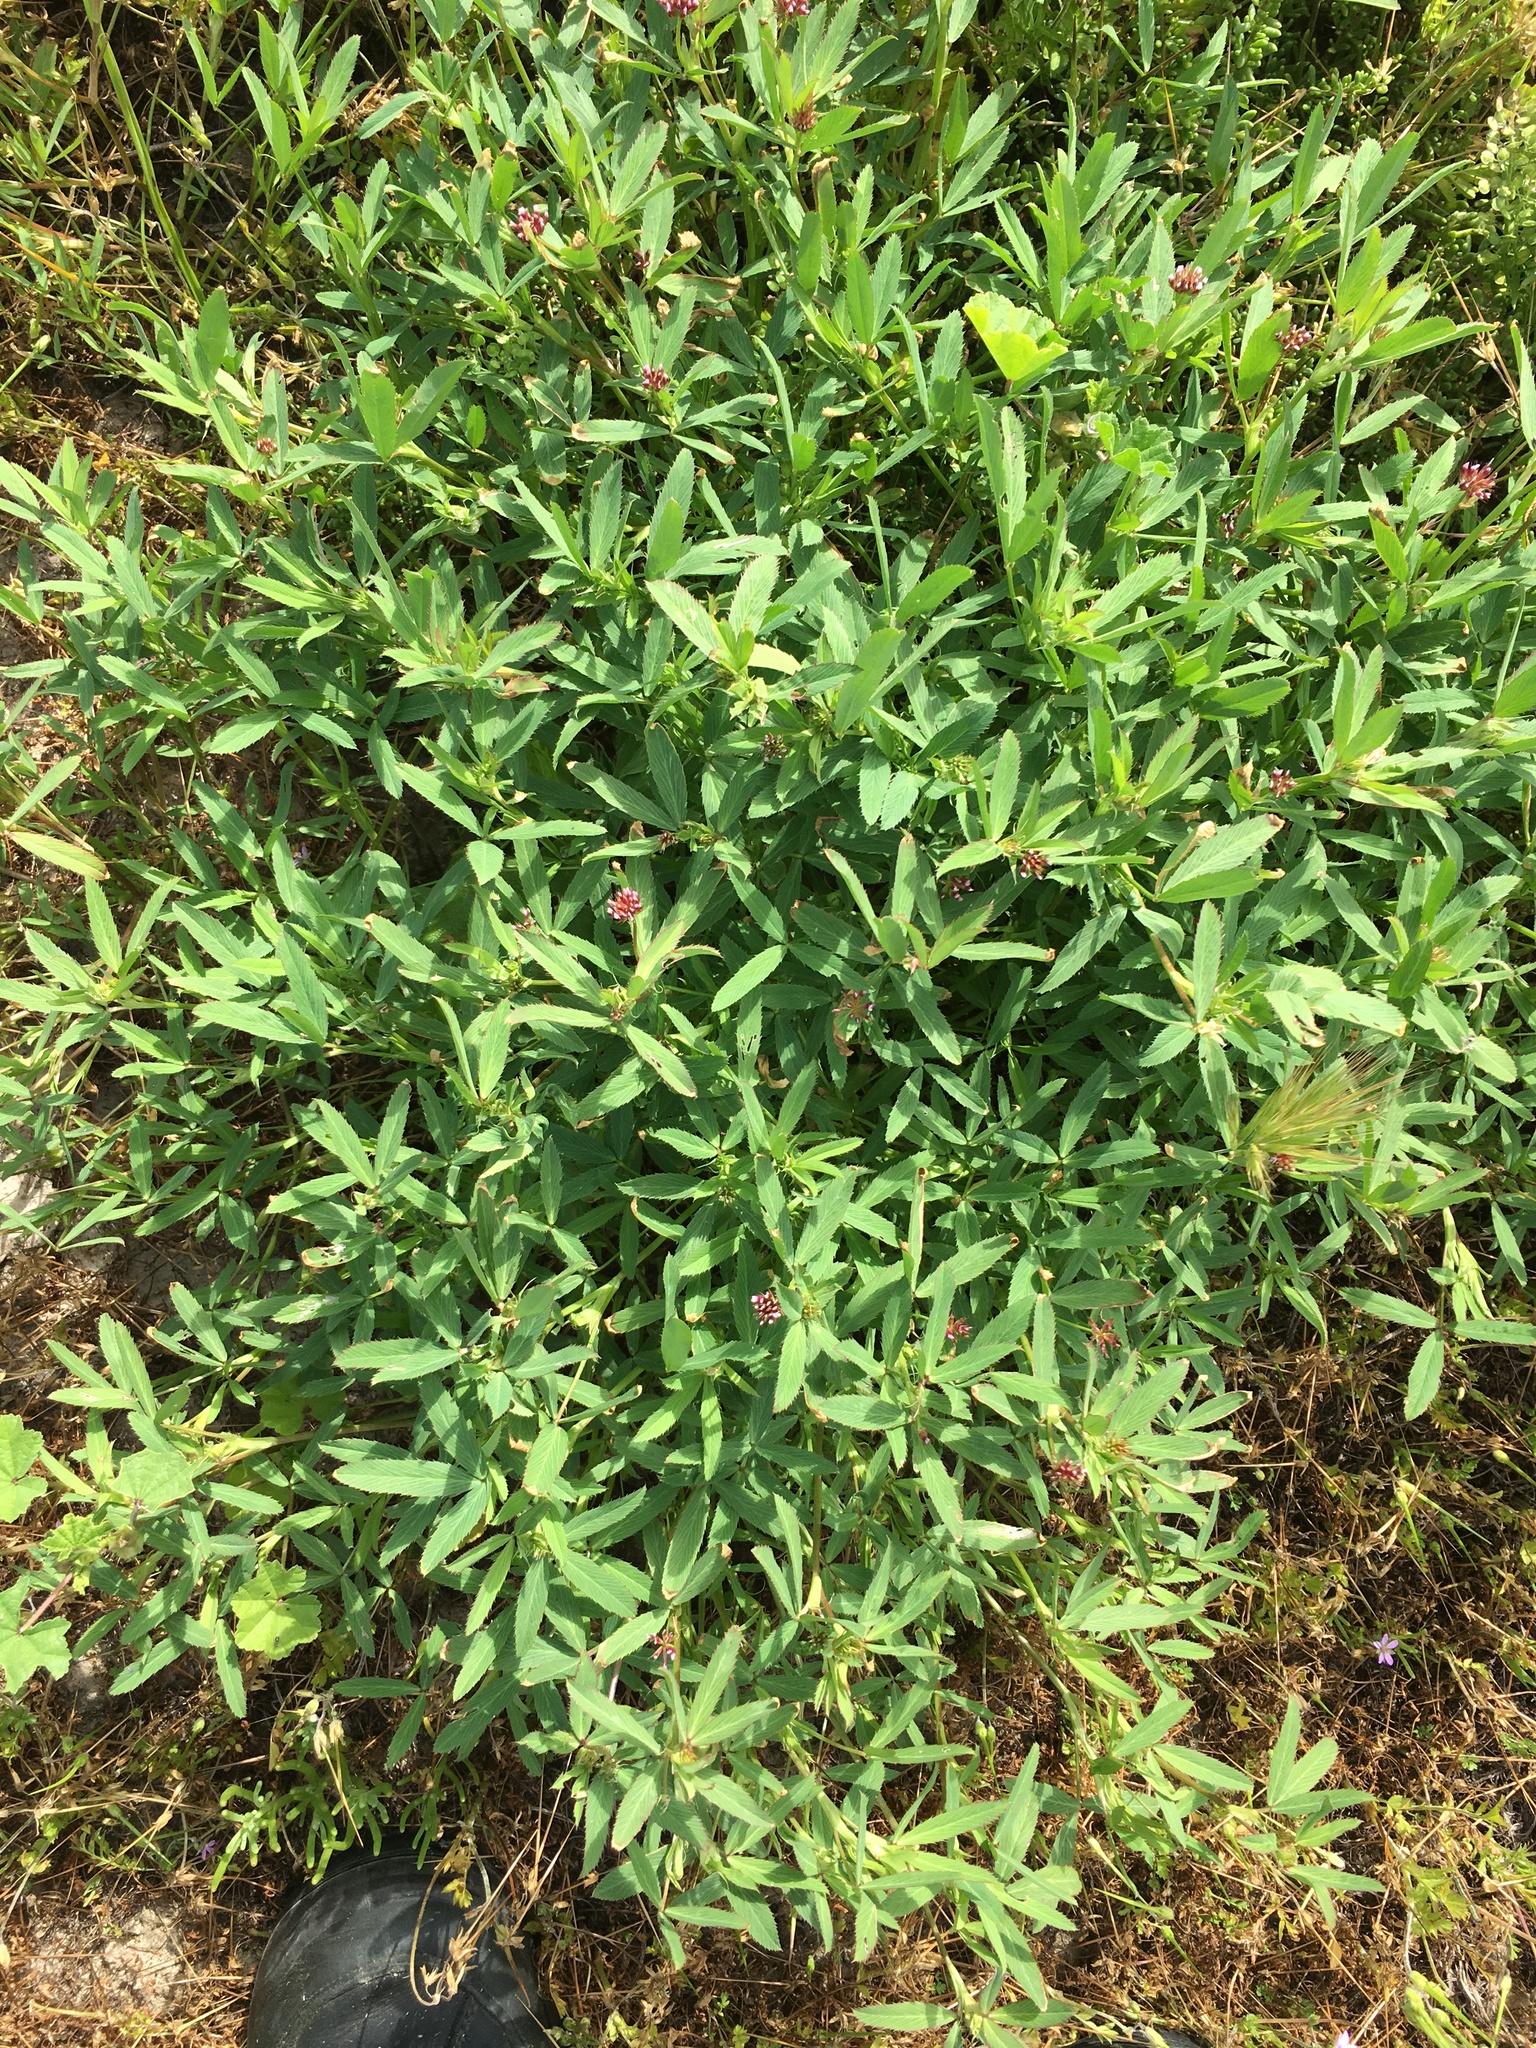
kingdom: Plantae
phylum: Tracheophyta
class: Magnoliopsida
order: Fabales
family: Fabaceae
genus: Trifolium
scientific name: Trifolium palmeri
